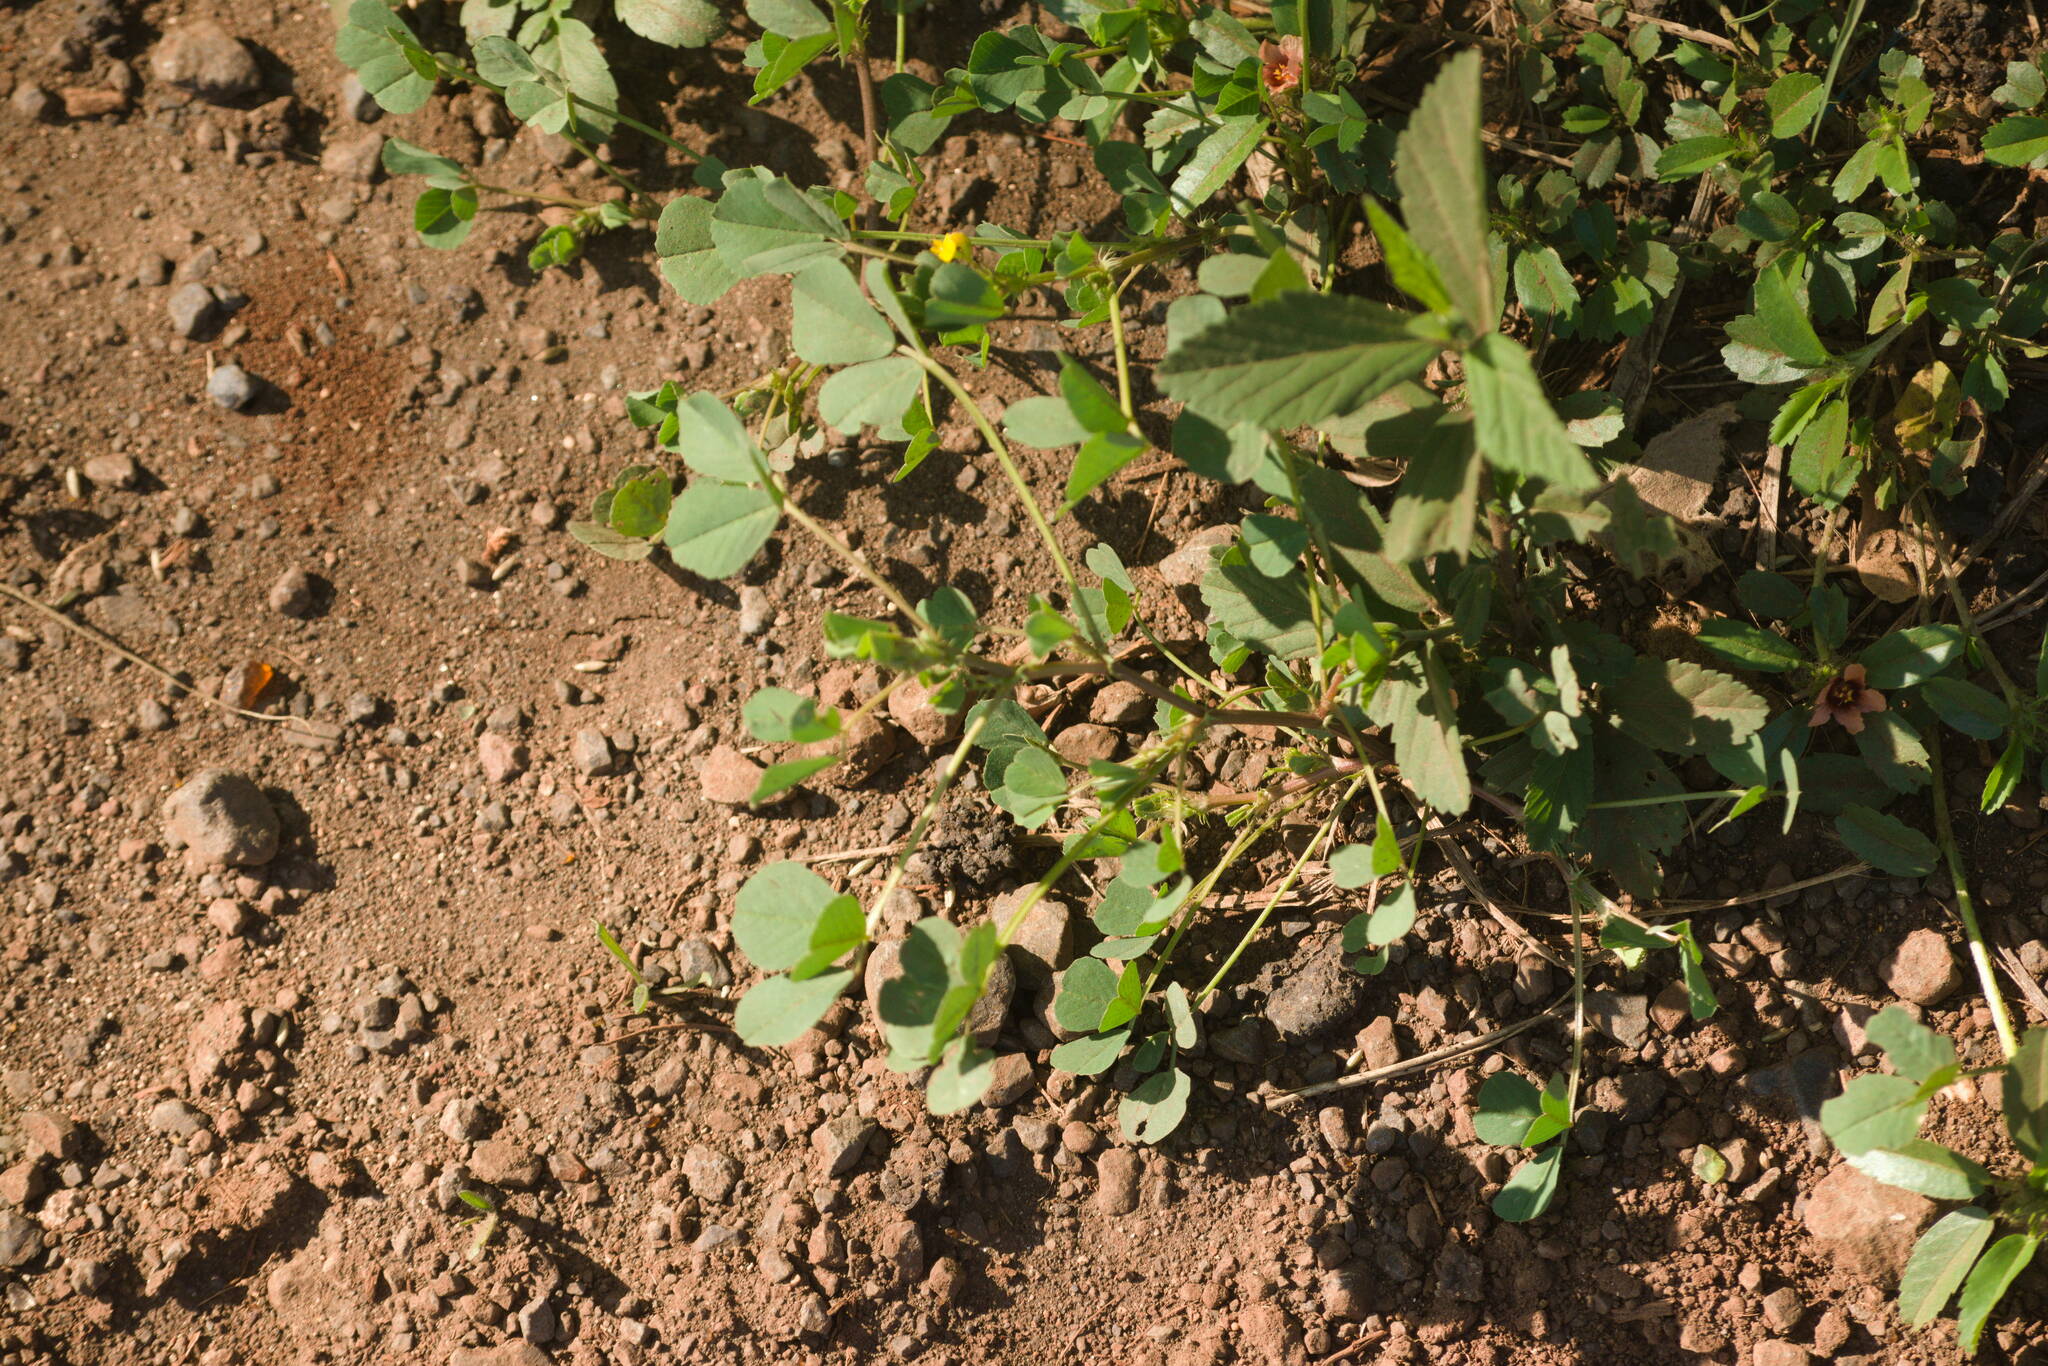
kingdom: Plantae
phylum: Tracheophyta
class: Magnoliopsida
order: Fabales
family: Fabaceae
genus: Medicago
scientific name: Medicago polymorpha
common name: Burclover
